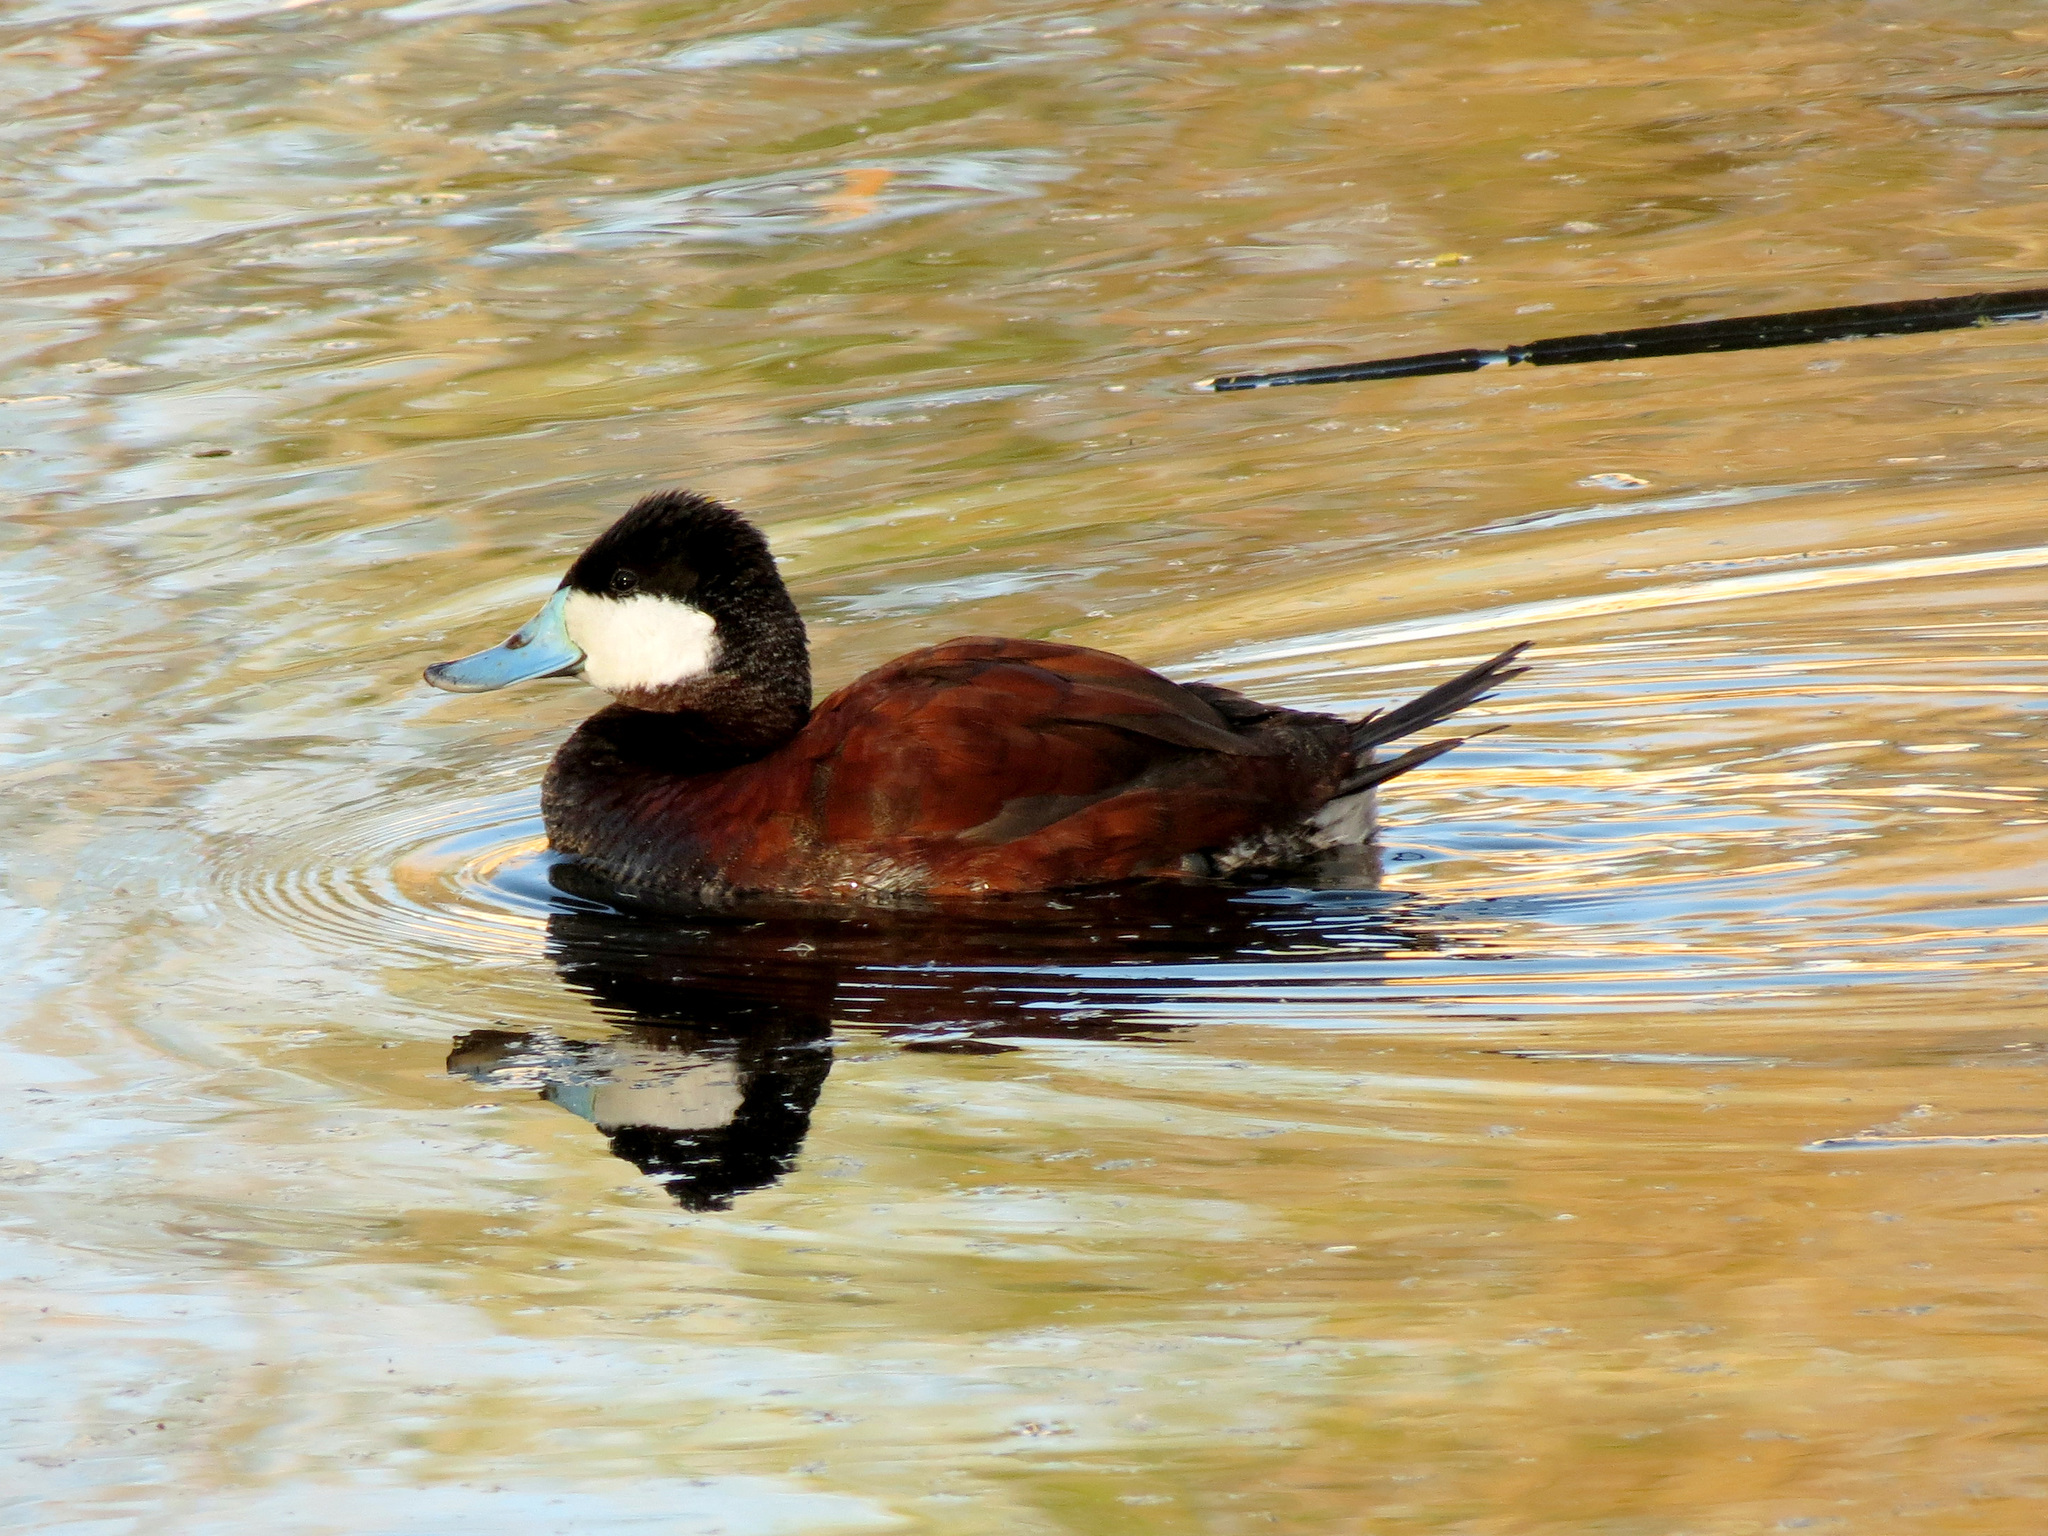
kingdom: Animalia
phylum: Chordata
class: Aves
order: Anseriformes
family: Anatidae
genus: Oxyura
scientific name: Oxyura jamaicensis
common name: Ruddy duck
